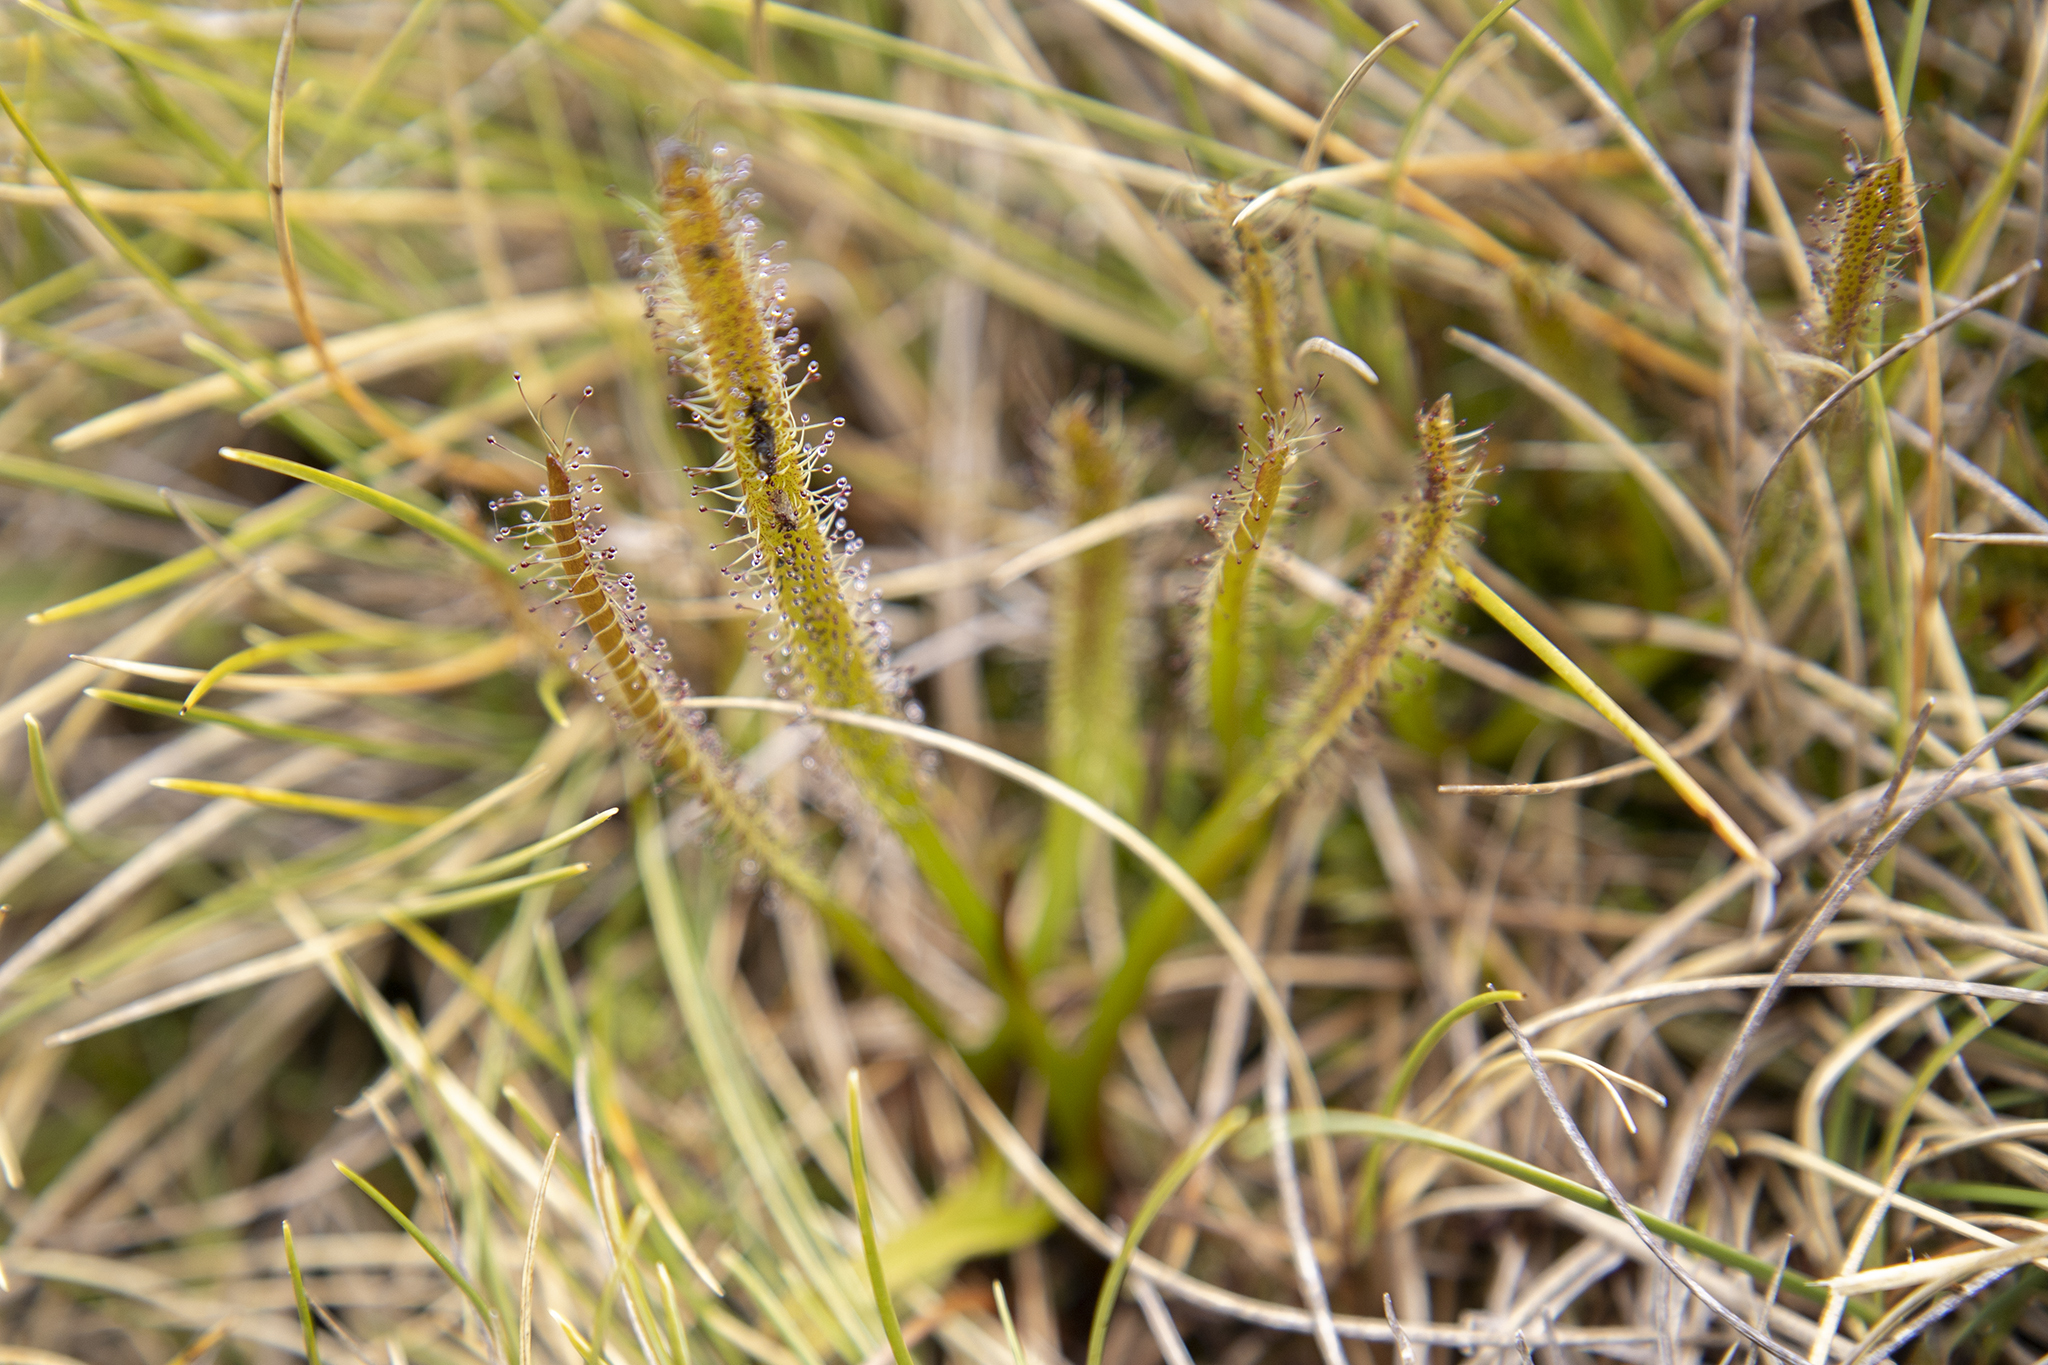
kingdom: Plantae
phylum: Tracheophyta
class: Magnoliopsida
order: Caryophyllales
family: Droseraceae
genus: Drosera
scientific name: Drosera arcturi
